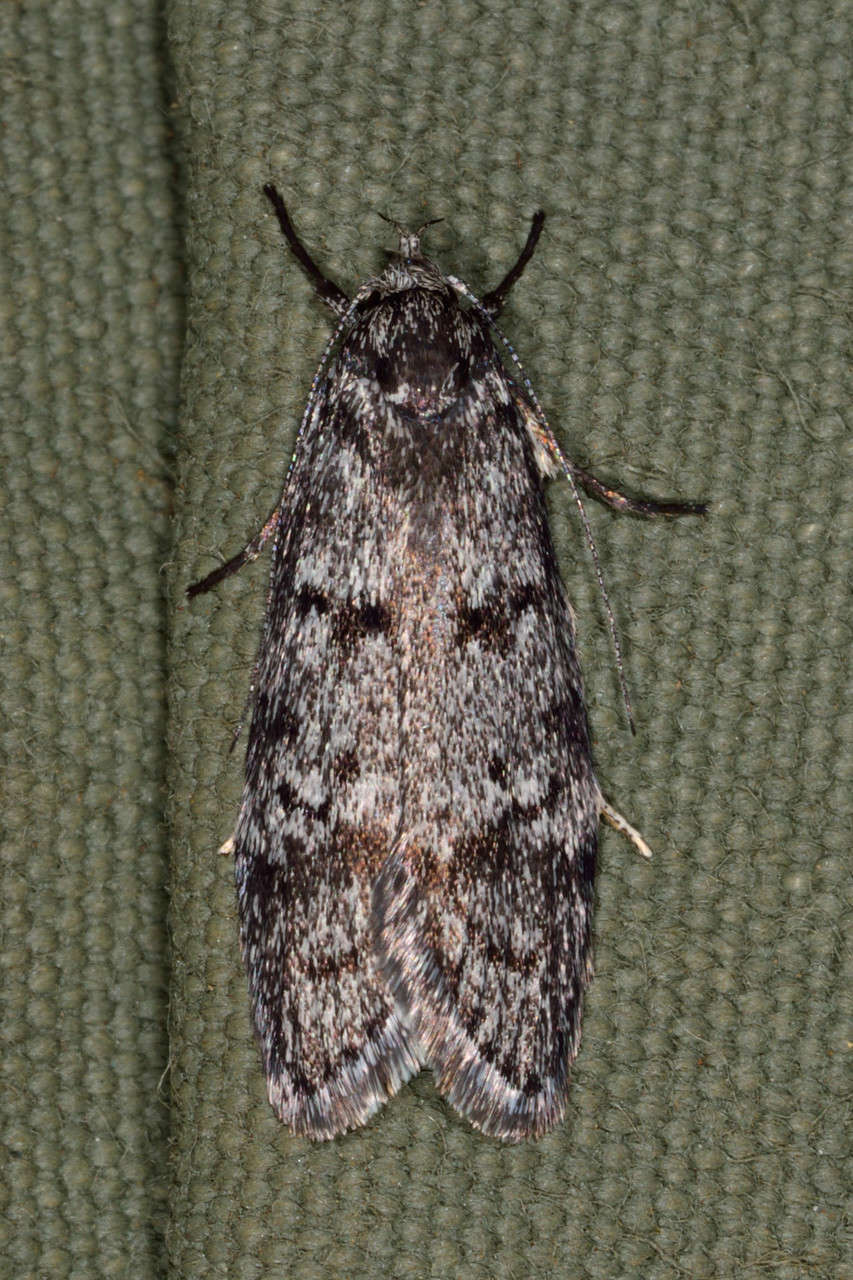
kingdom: Animalia
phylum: Arthropoda
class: Insecta
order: Lepidoptera
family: Oecophoridae
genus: Ericrypsina
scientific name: Ericrypsina chorodoxa
